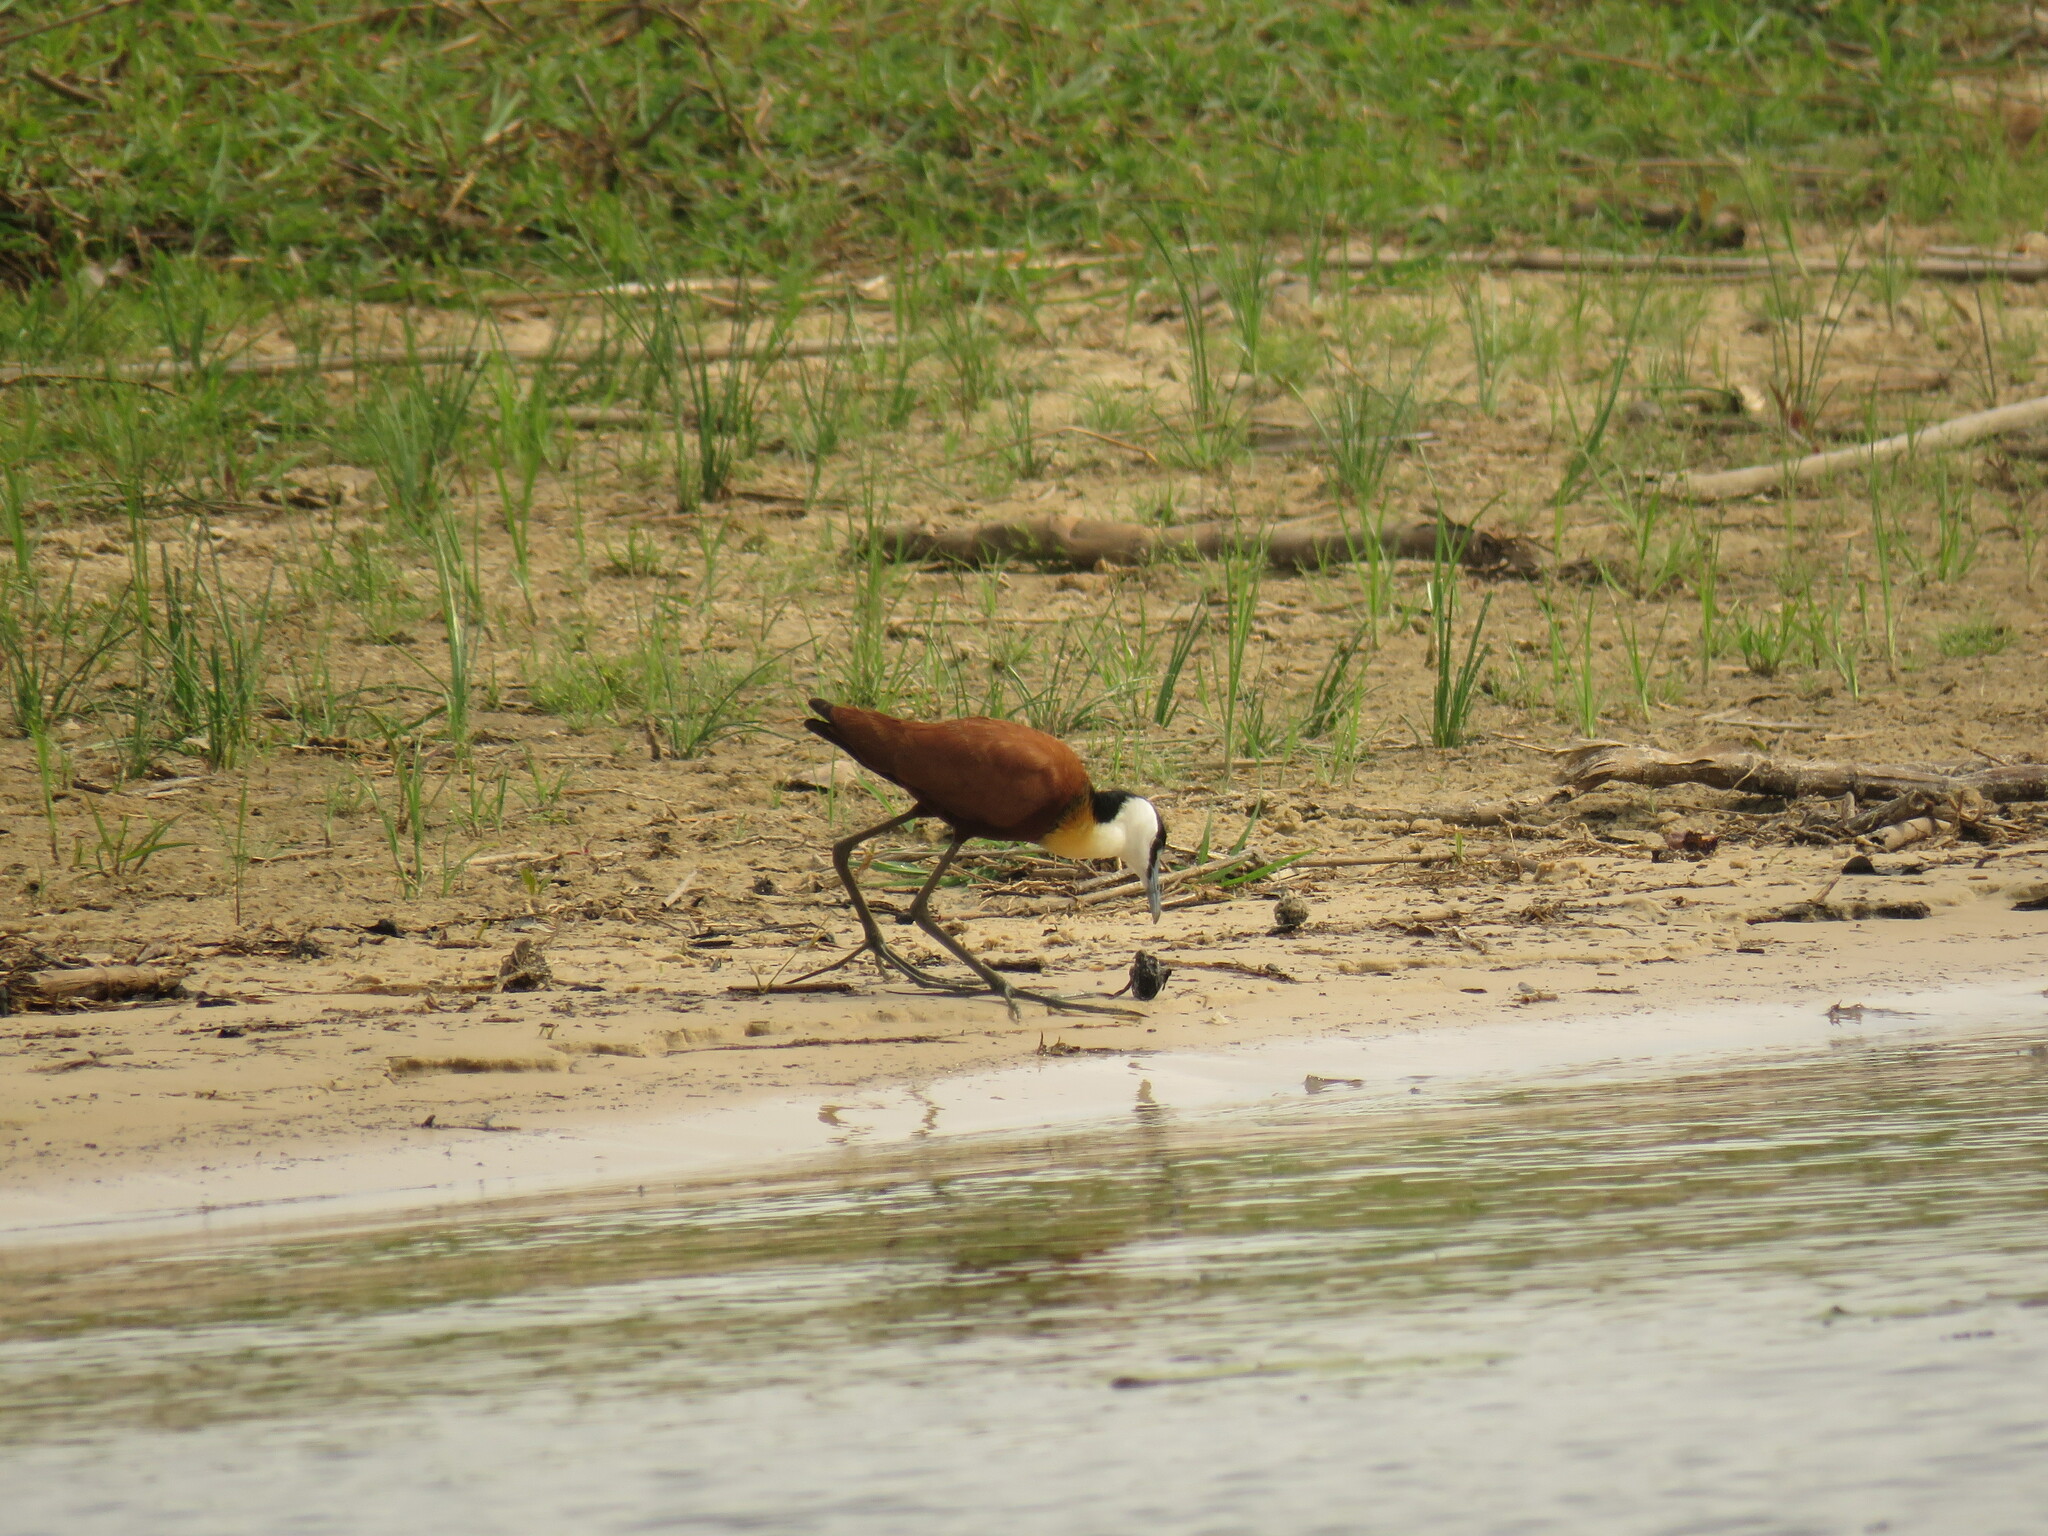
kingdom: Animalia
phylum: Chordata
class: Aves
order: Charadriiformes
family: Jacanidae
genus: Actophilornis
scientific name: Actophilornis africanus
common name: African jacana
